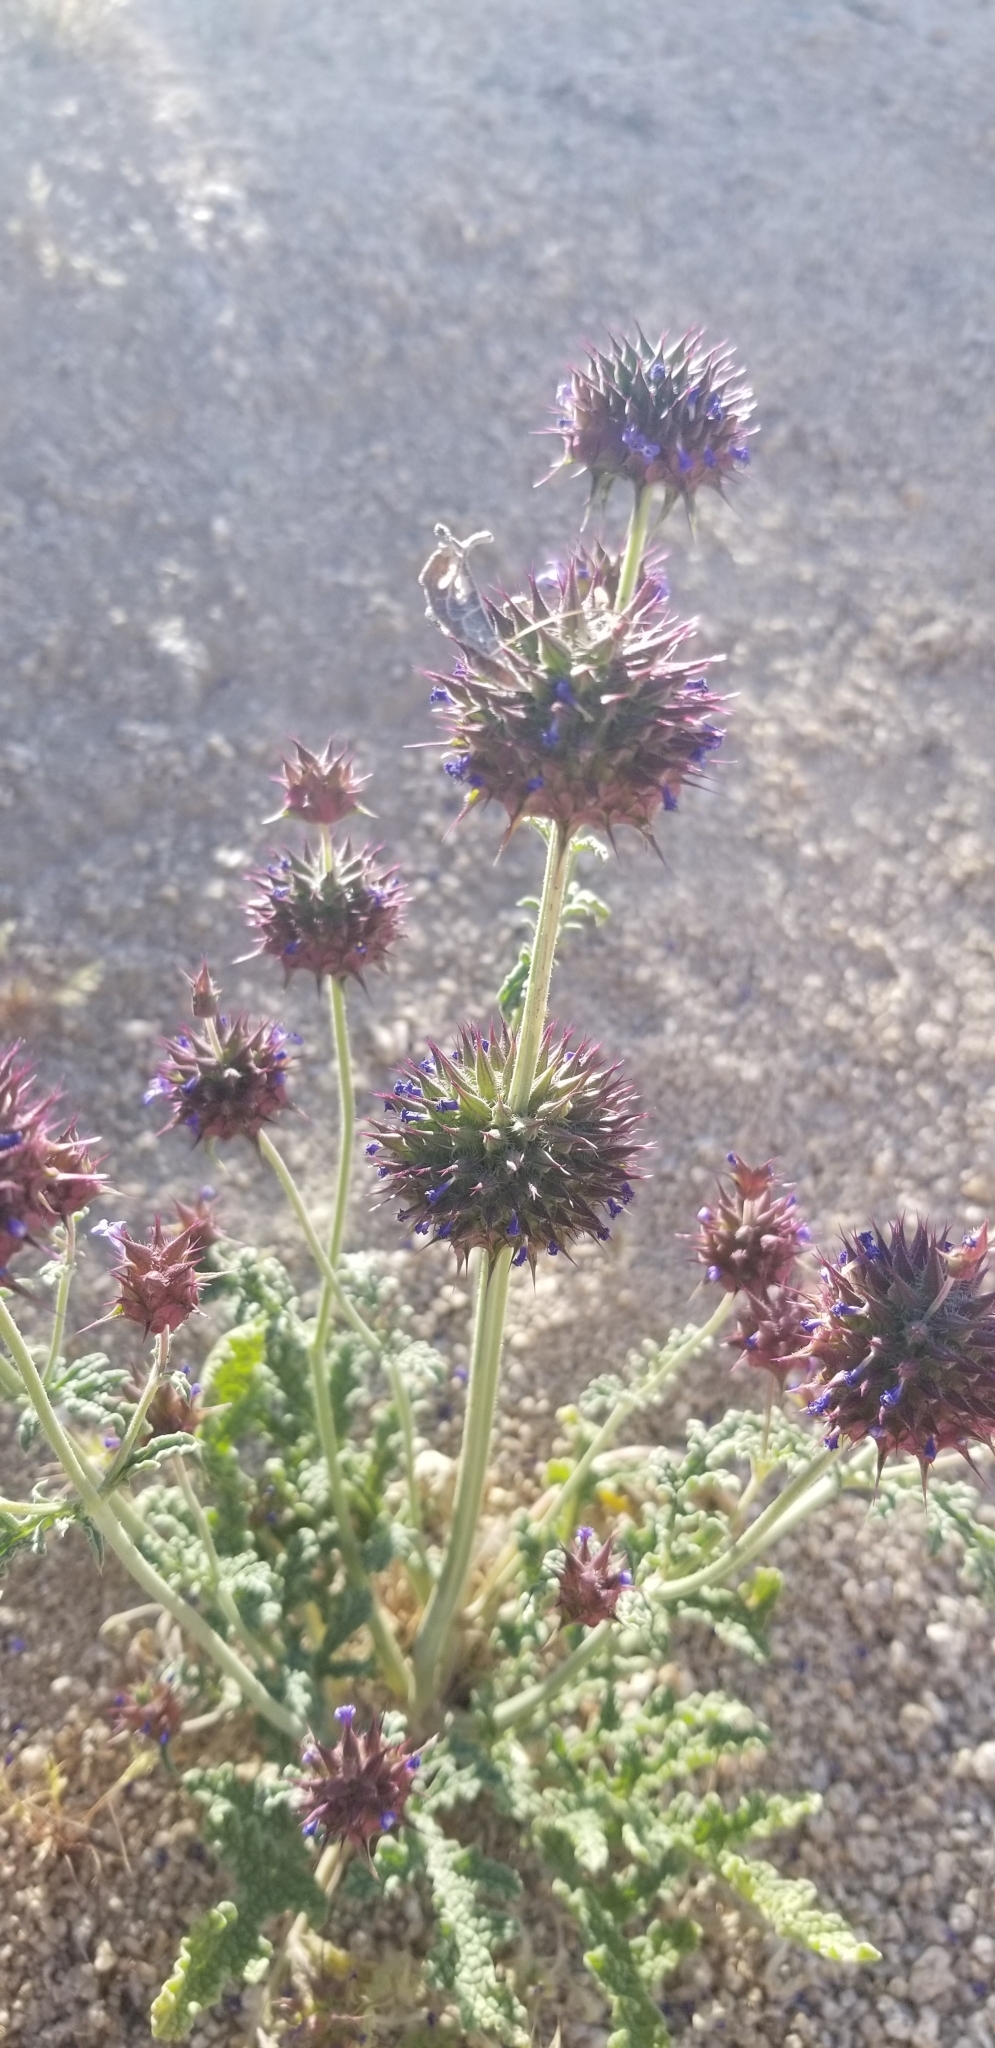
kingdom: Plantae
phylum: Tracheophyta
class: Magnoliopsida
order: Lamiales
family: Lamiaceae
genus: Salvia
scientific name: Salvia columbariae
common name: Chia
